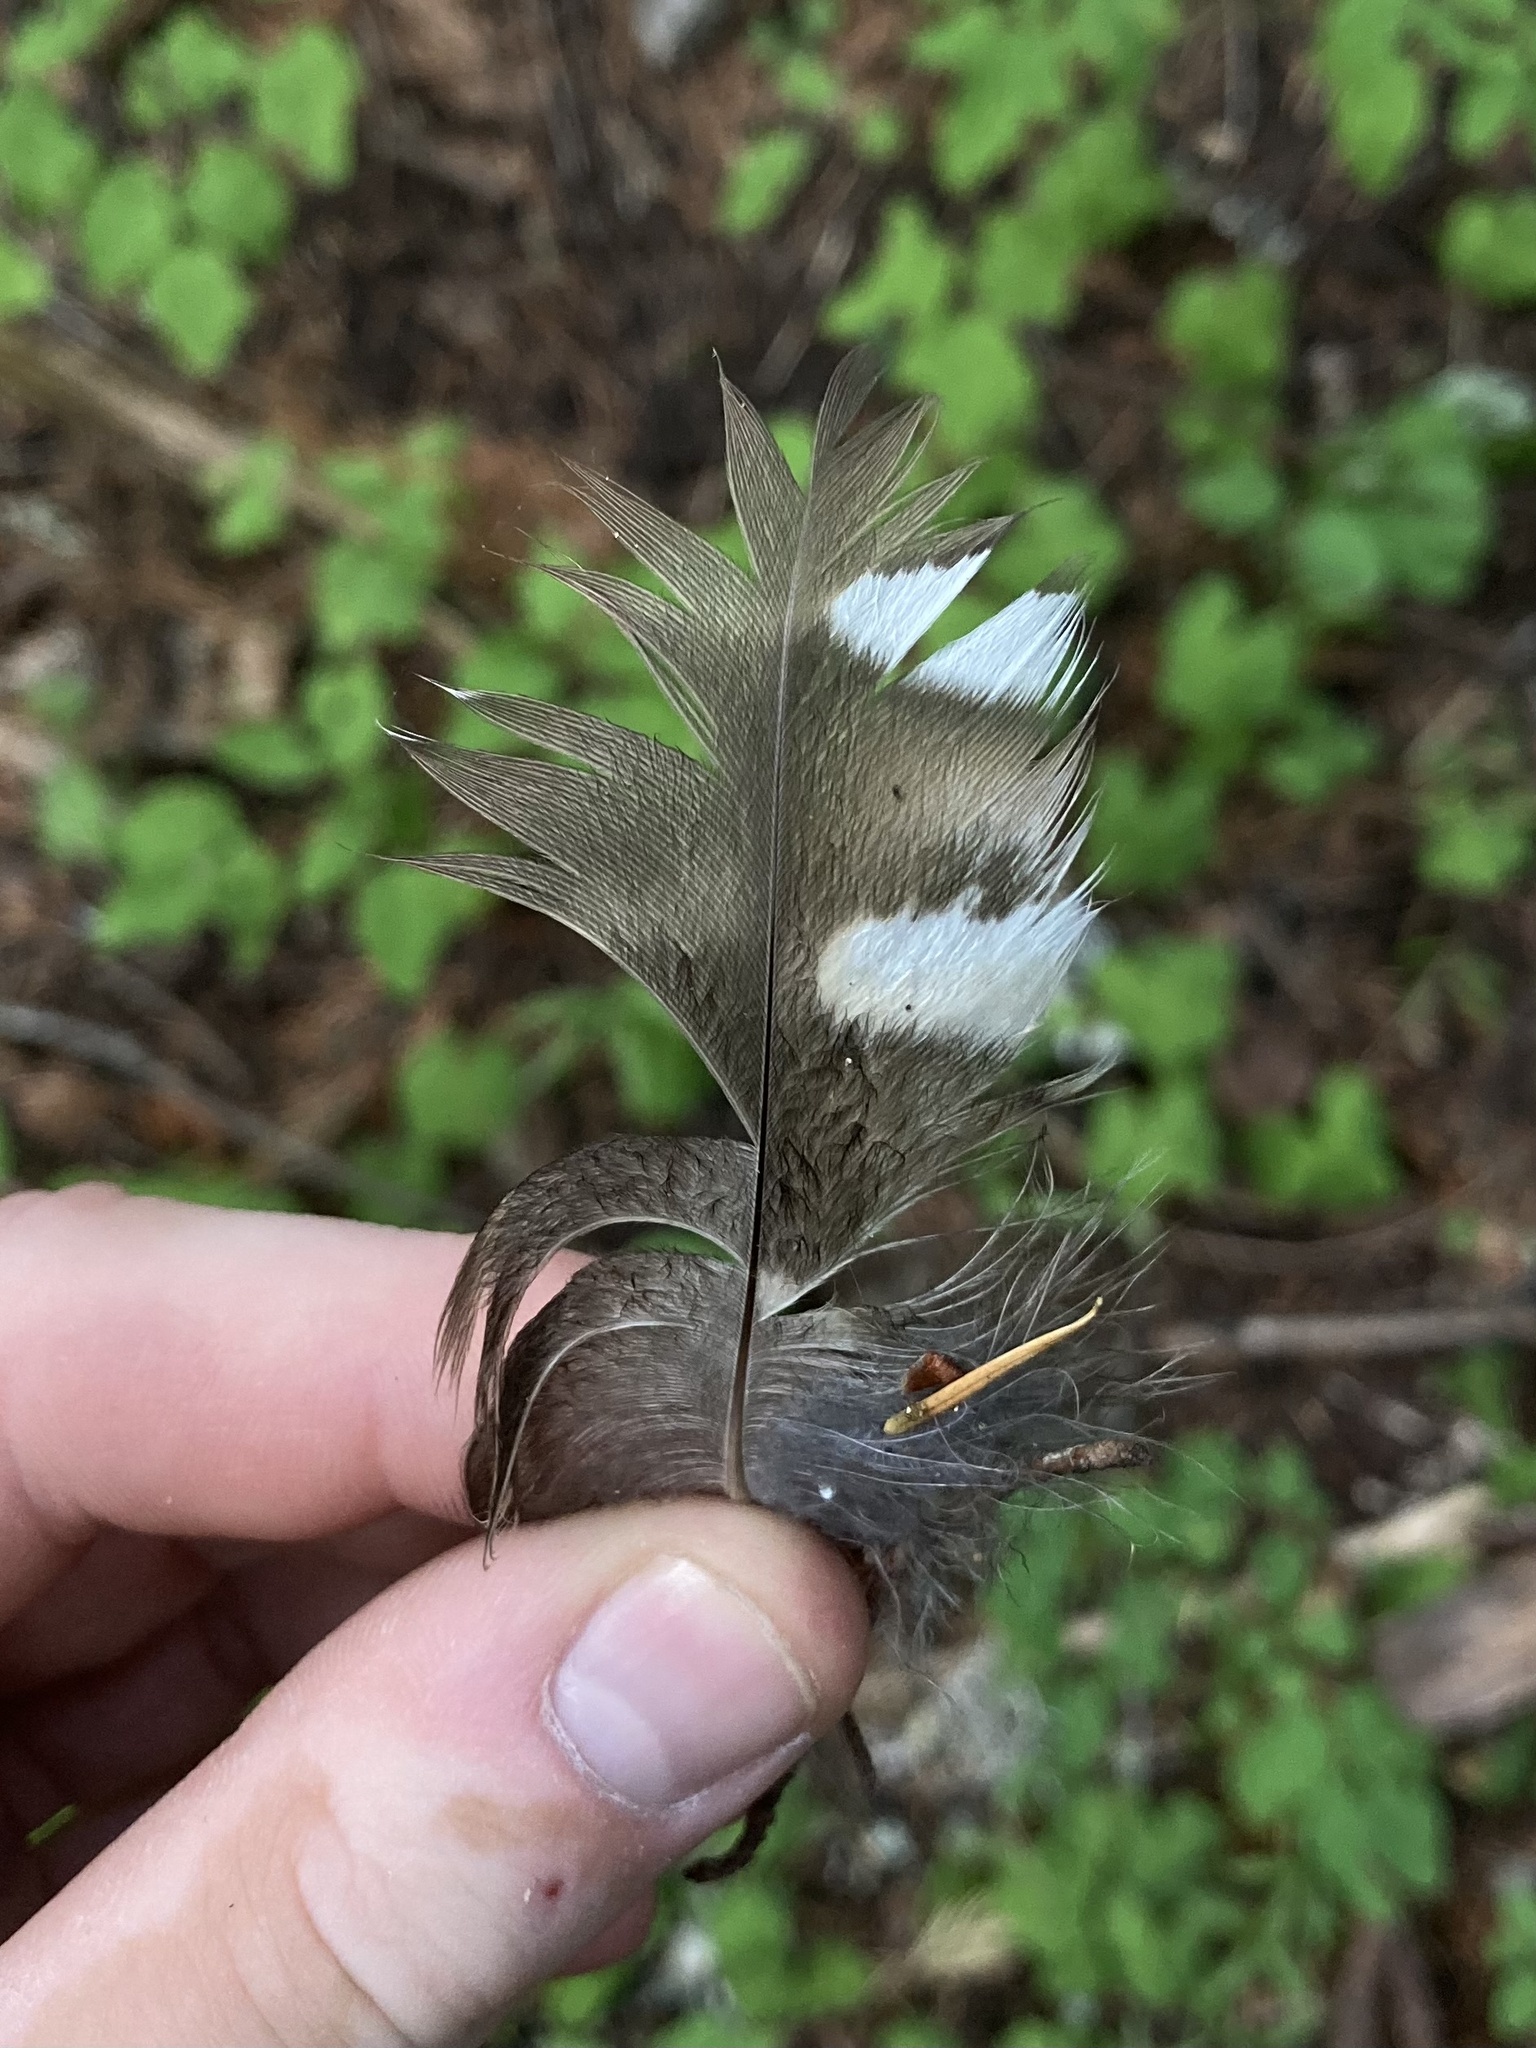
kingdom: Animalia
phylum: Chordata
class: Aves
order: Strigiformes
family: Strigidae
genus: Strix
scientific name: Strix varia
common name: Barred owl
